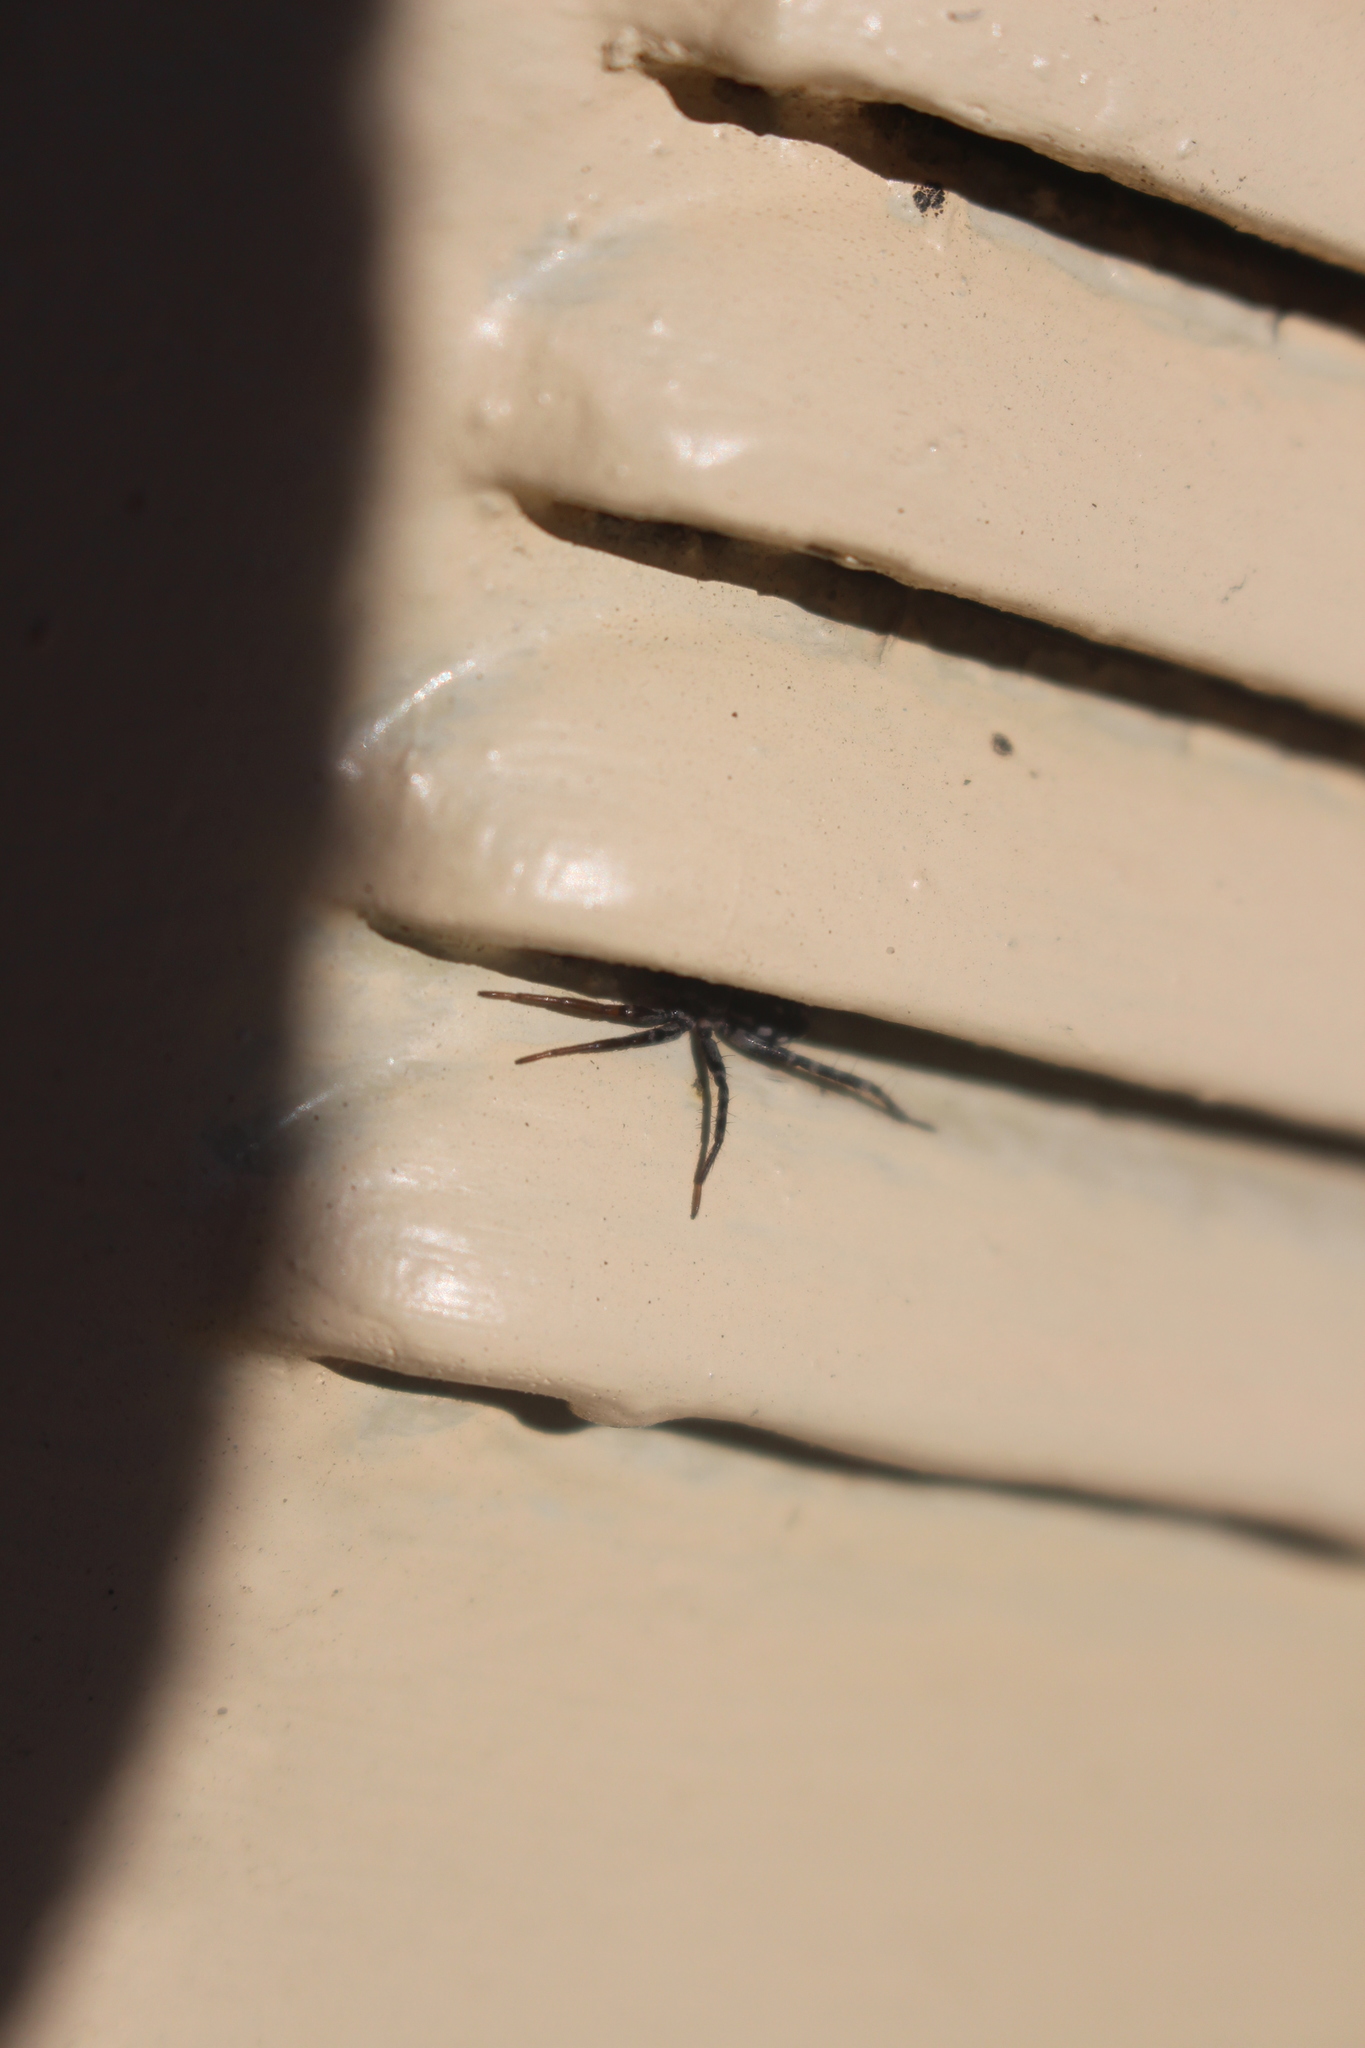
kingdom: Animalia
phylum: Arthropoda
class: Arachnida
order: Araneae
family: Corinnidae
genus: Nyssus
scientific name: Nyssus coloripes
